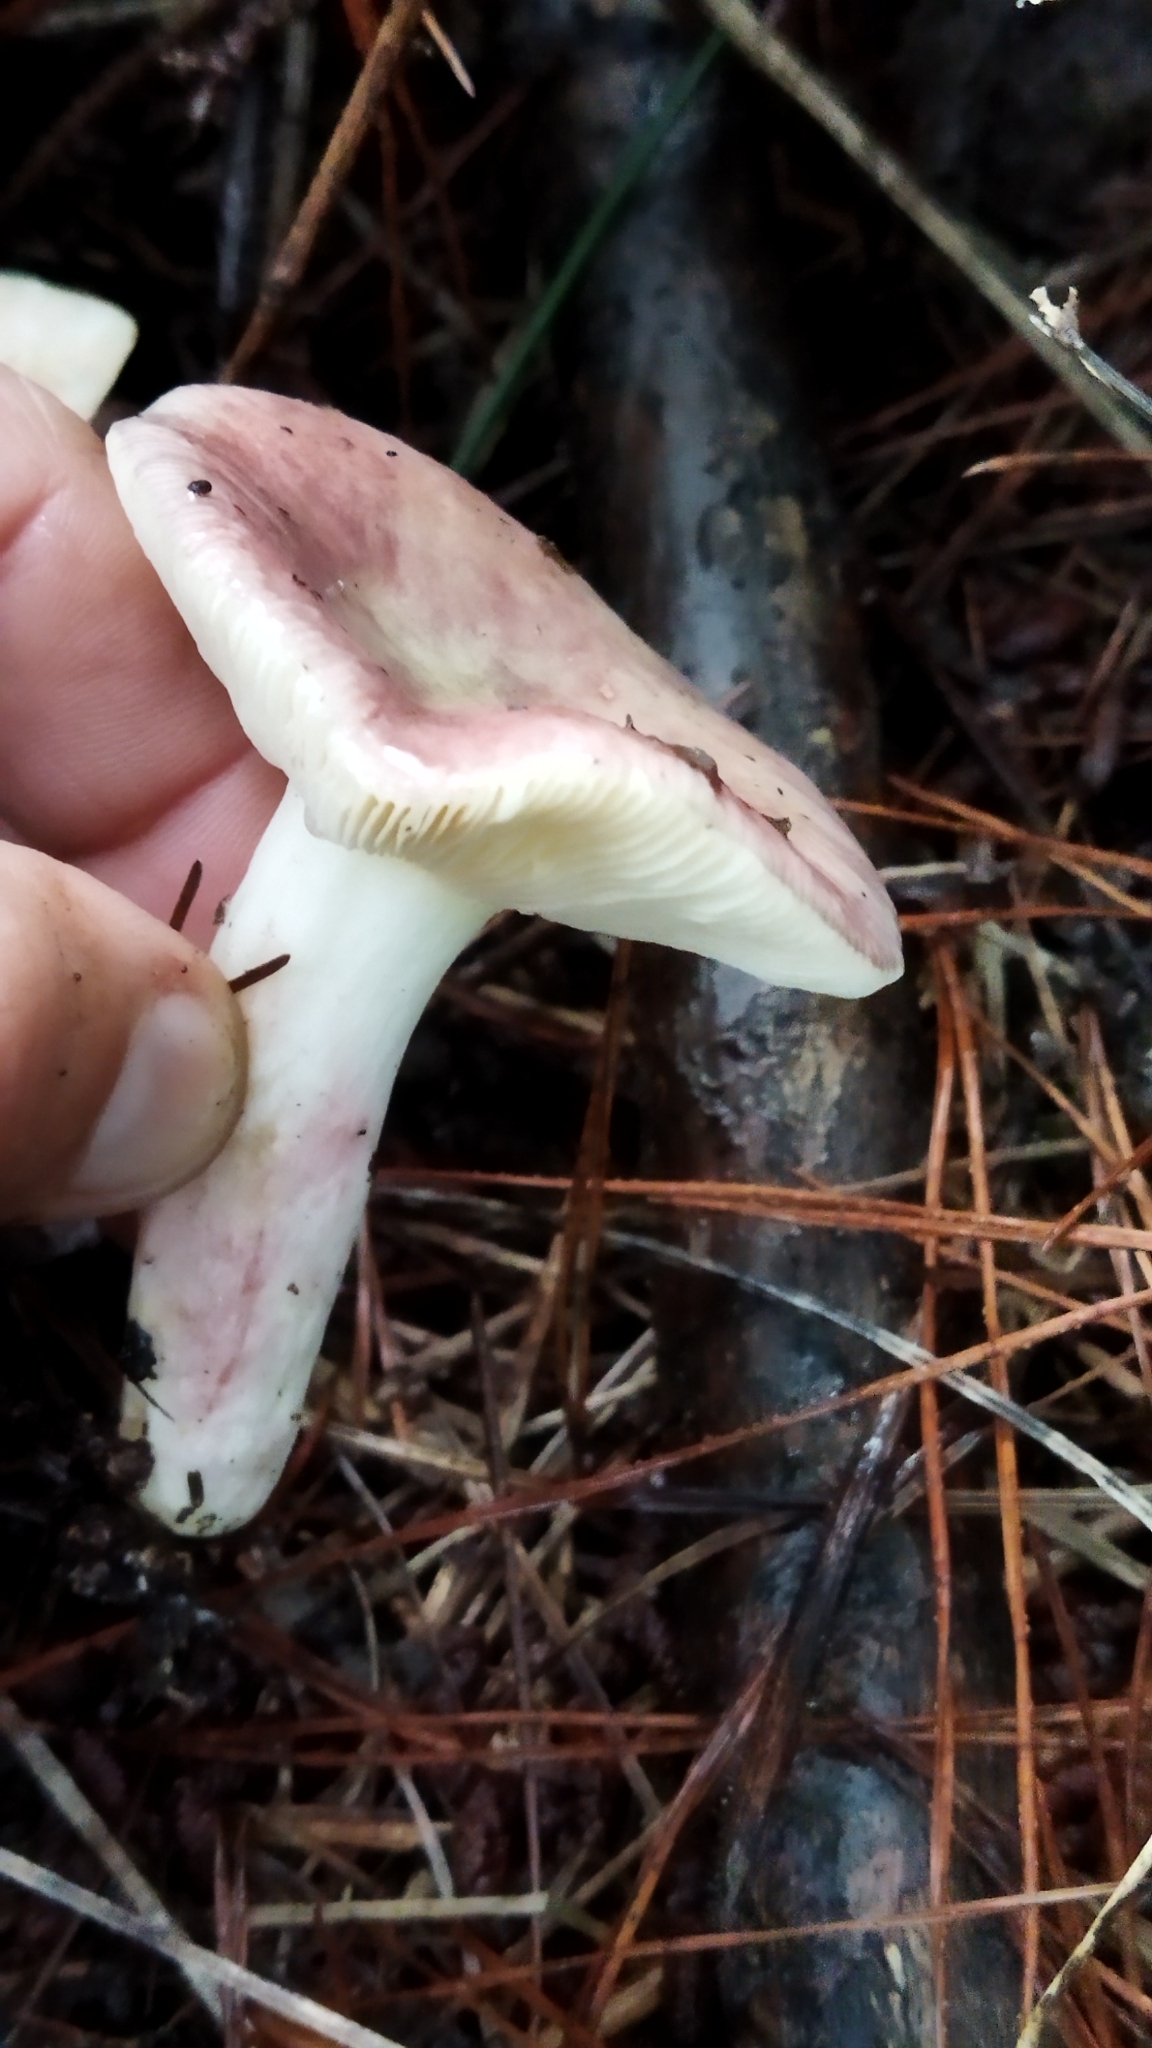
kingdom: Fungi
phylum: Basidiomycota
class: Agaricomycetes
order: Russulales
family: Russulaceae
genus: Russula
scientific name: Russula sardonia
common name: Primrose brittlegill
